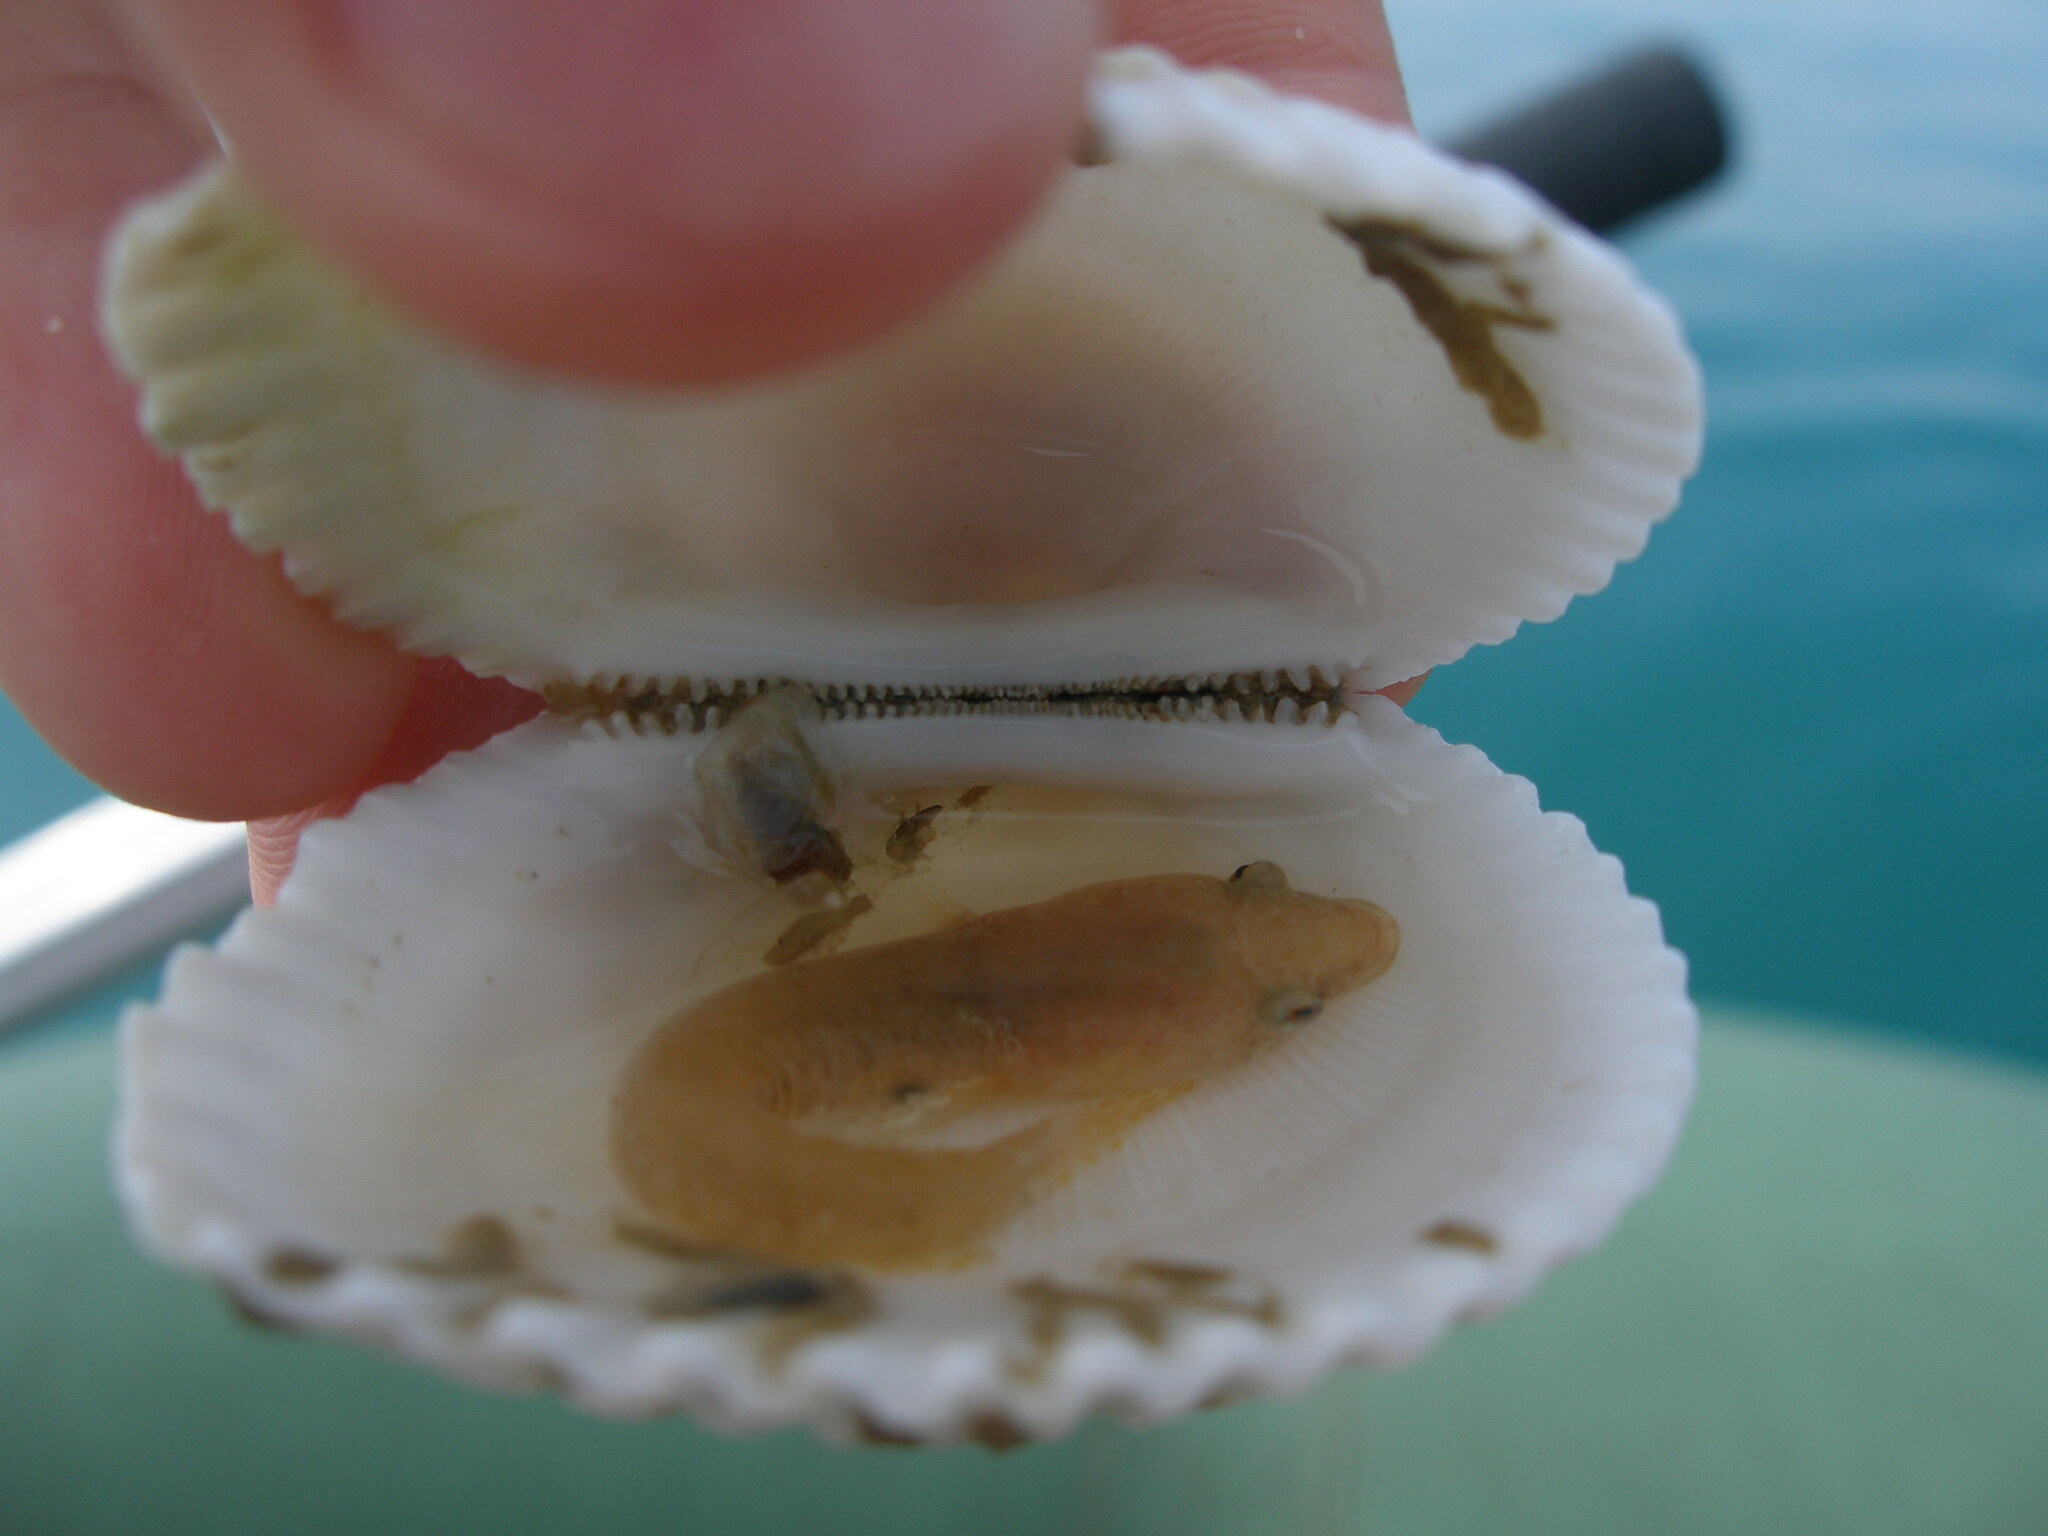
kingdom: Animalia
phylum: Mollusca
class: Bivalvia
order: Arcida
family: Arcidae
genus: Anadara
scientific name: Anadara kagoshimensis
